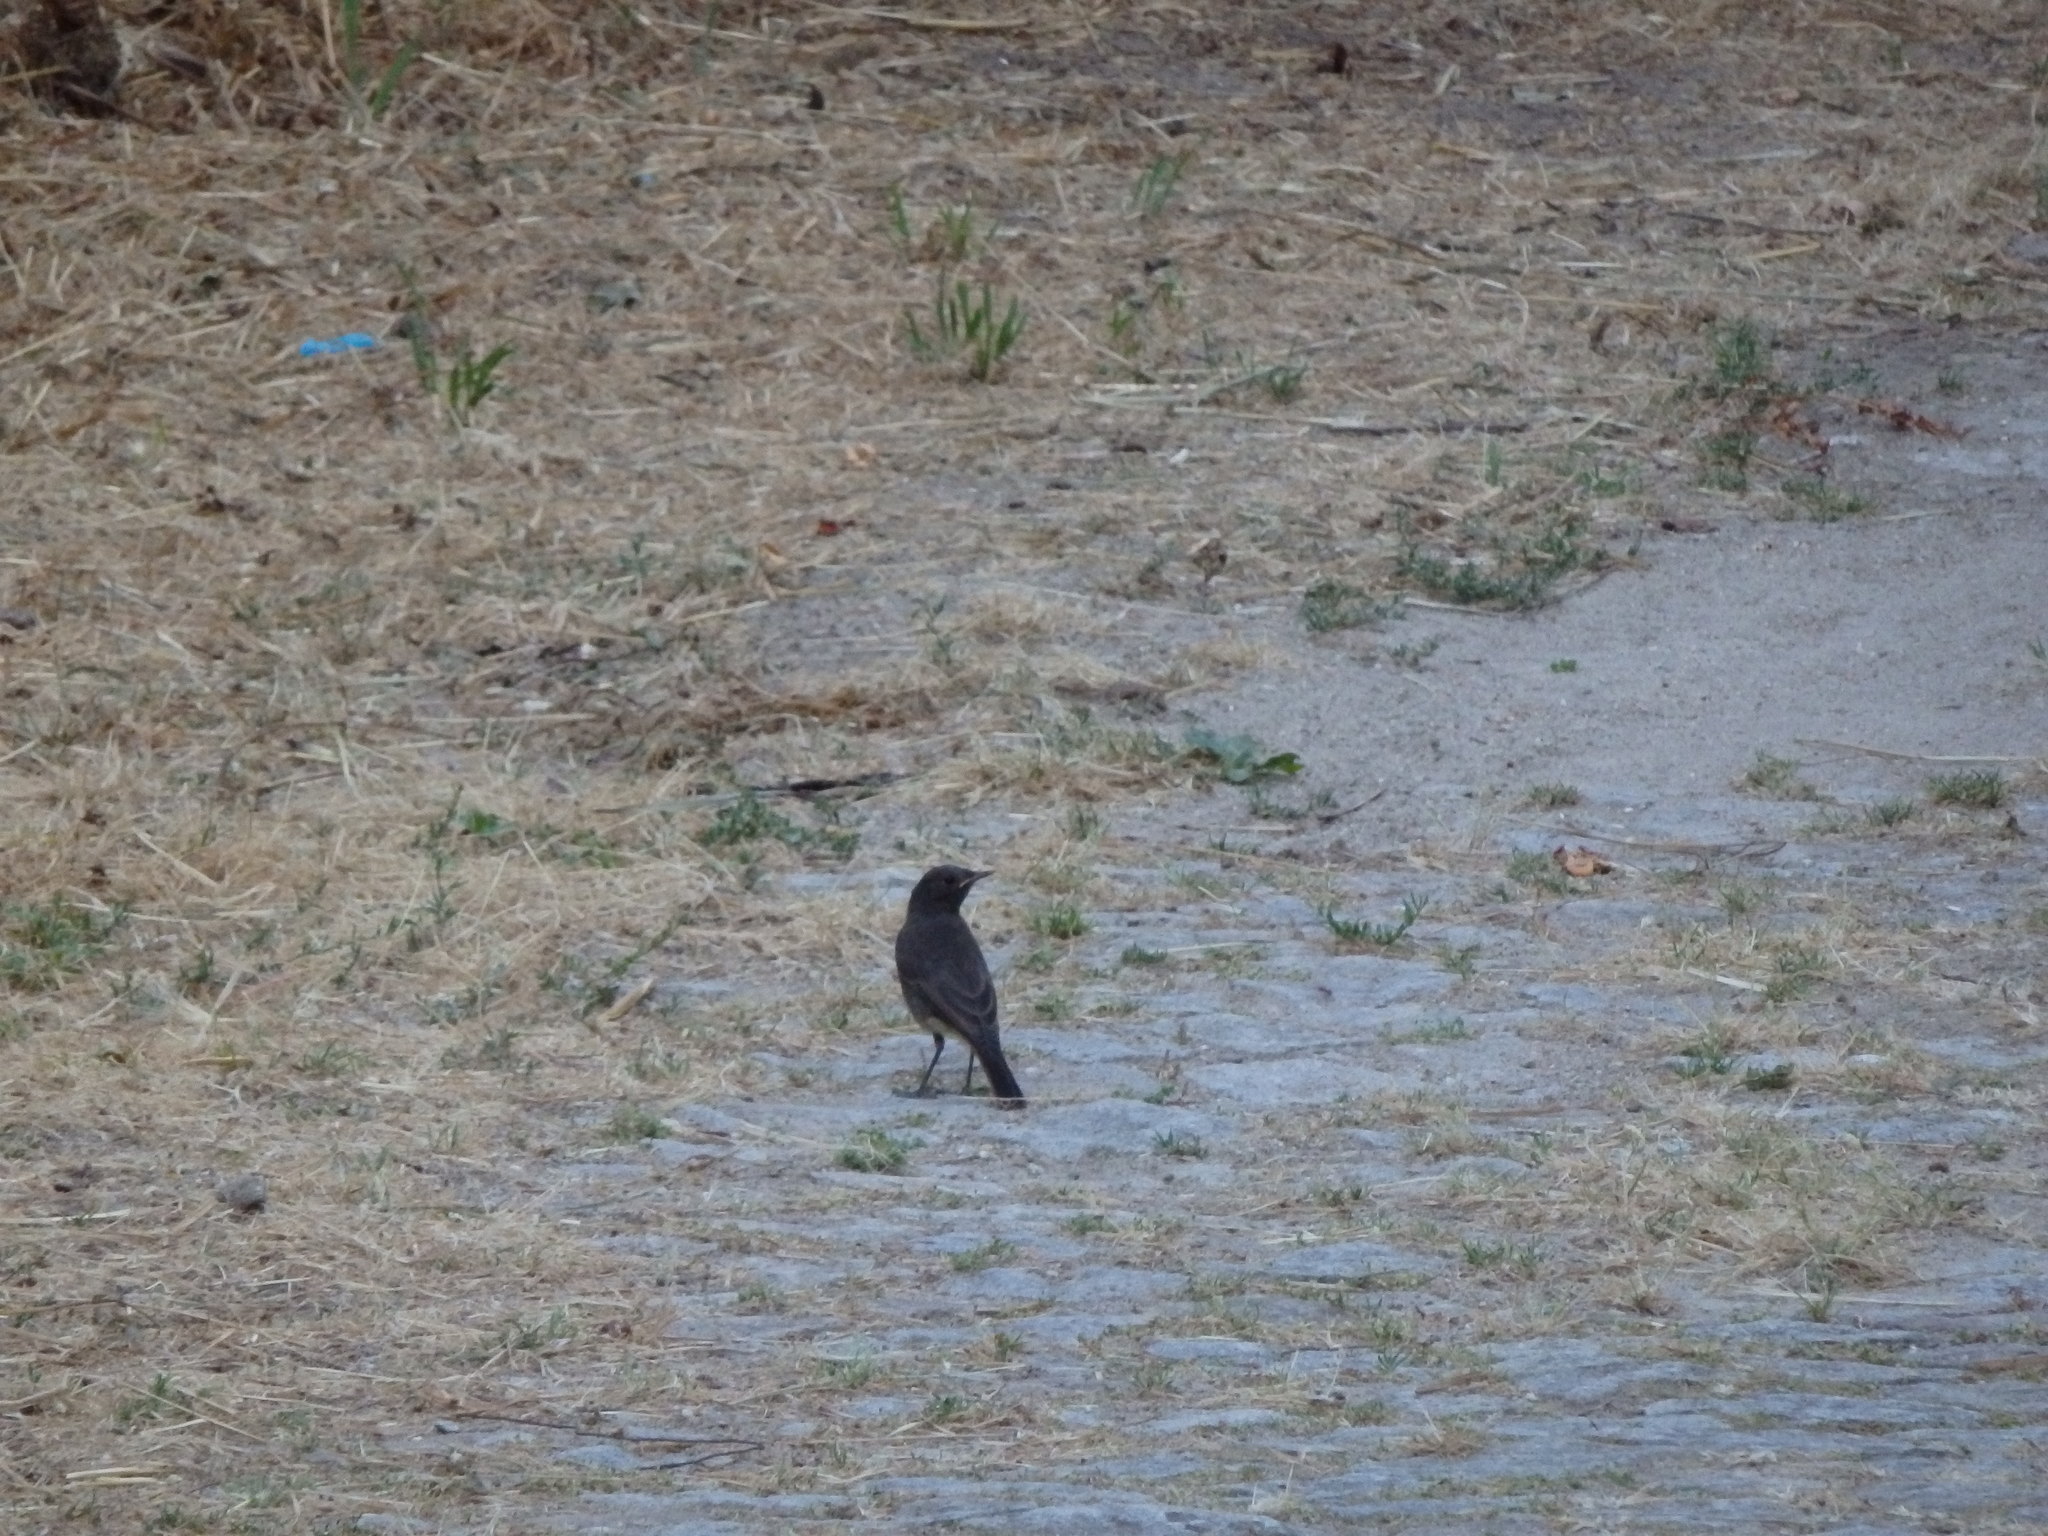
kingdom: Animalia
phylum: Chordata
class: Aves
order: Passeriformes
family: Muscicapidae
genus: Phoenicurus
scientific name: Phoenicurus ochruros
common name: Black redstart
